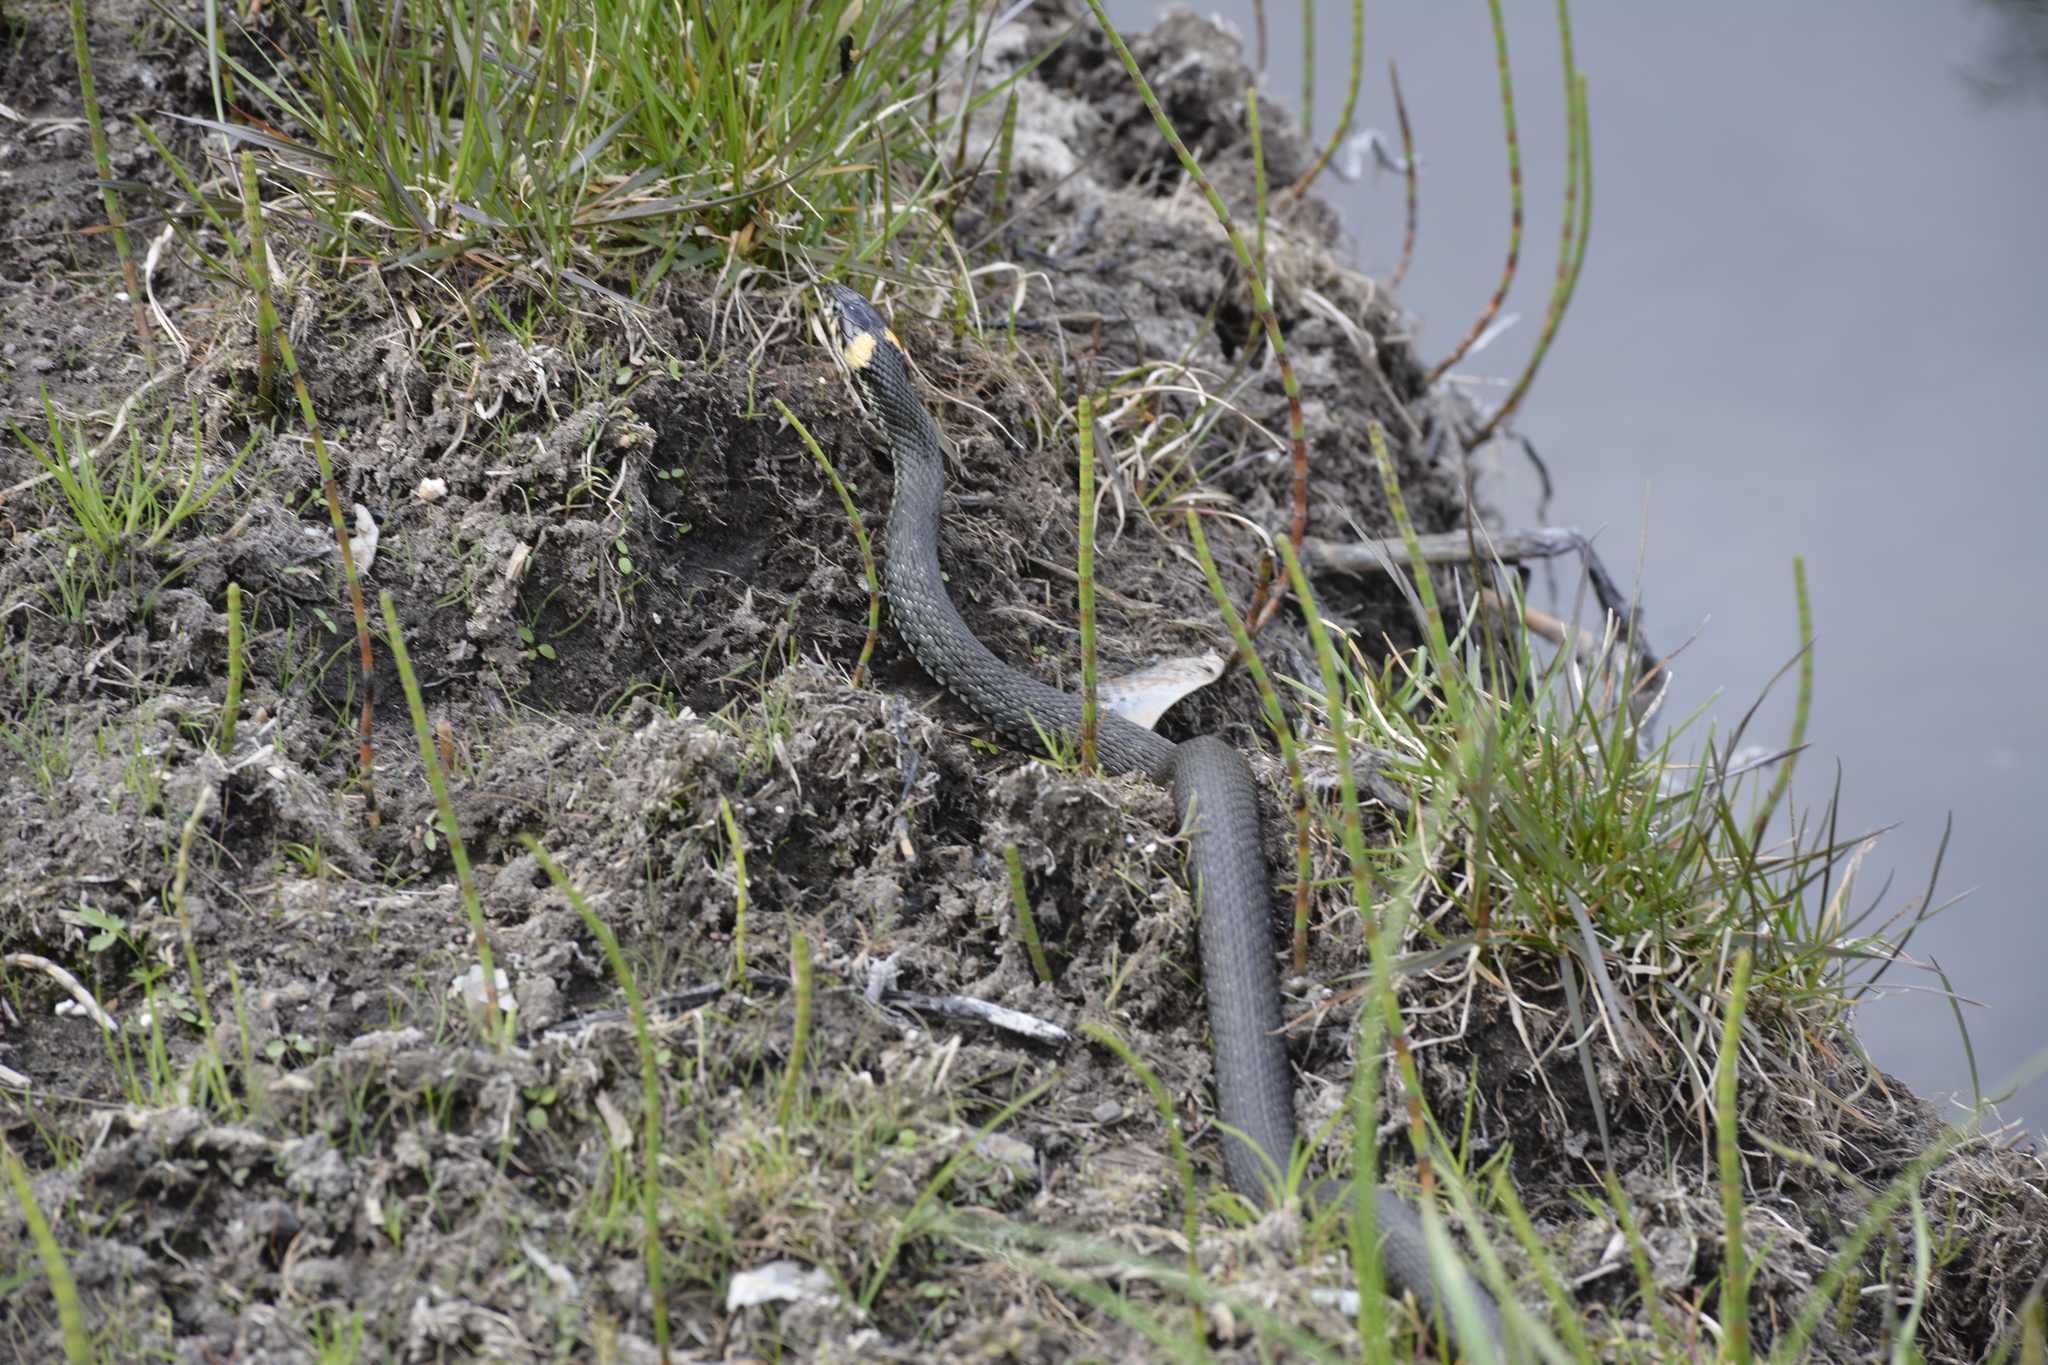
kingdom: Animalia
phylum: Chordata
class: Squamata
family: Colubridae
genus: Natrix
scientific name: Natrix natrix
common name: Grass snake
